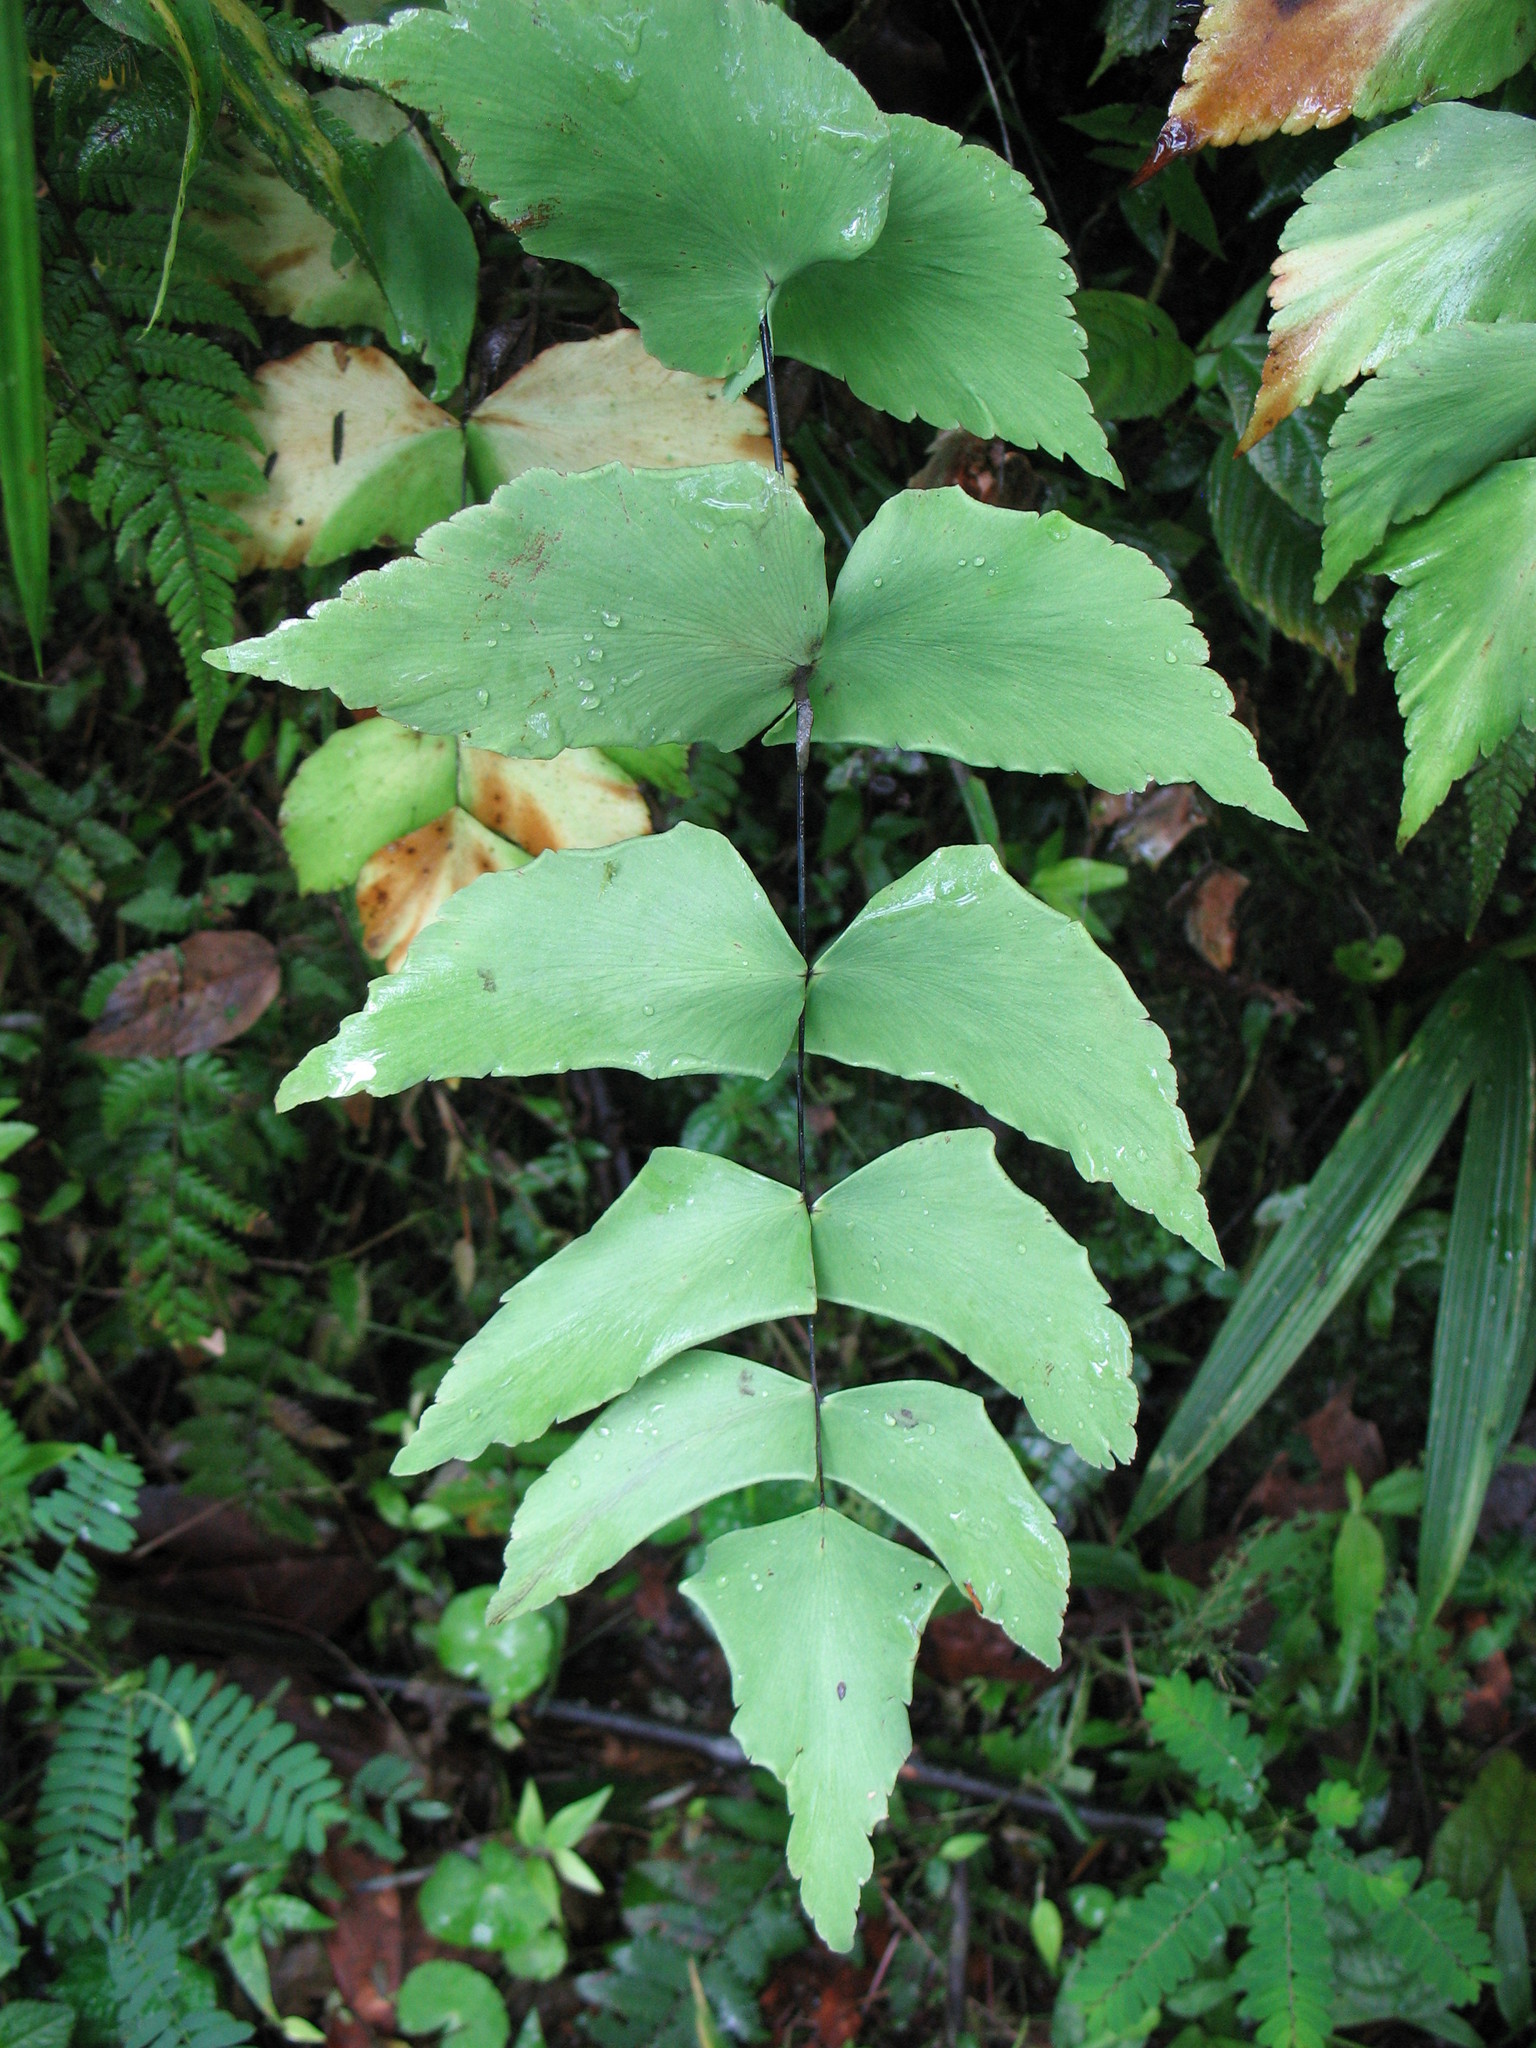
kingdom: Plantae
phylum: Tracheophyta
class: Polypodiopsida
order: Polypodiales
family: Pteridaceae
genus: Adiantum
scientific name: Adiantum macrophyllum
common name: Largeleaf maidenhair
